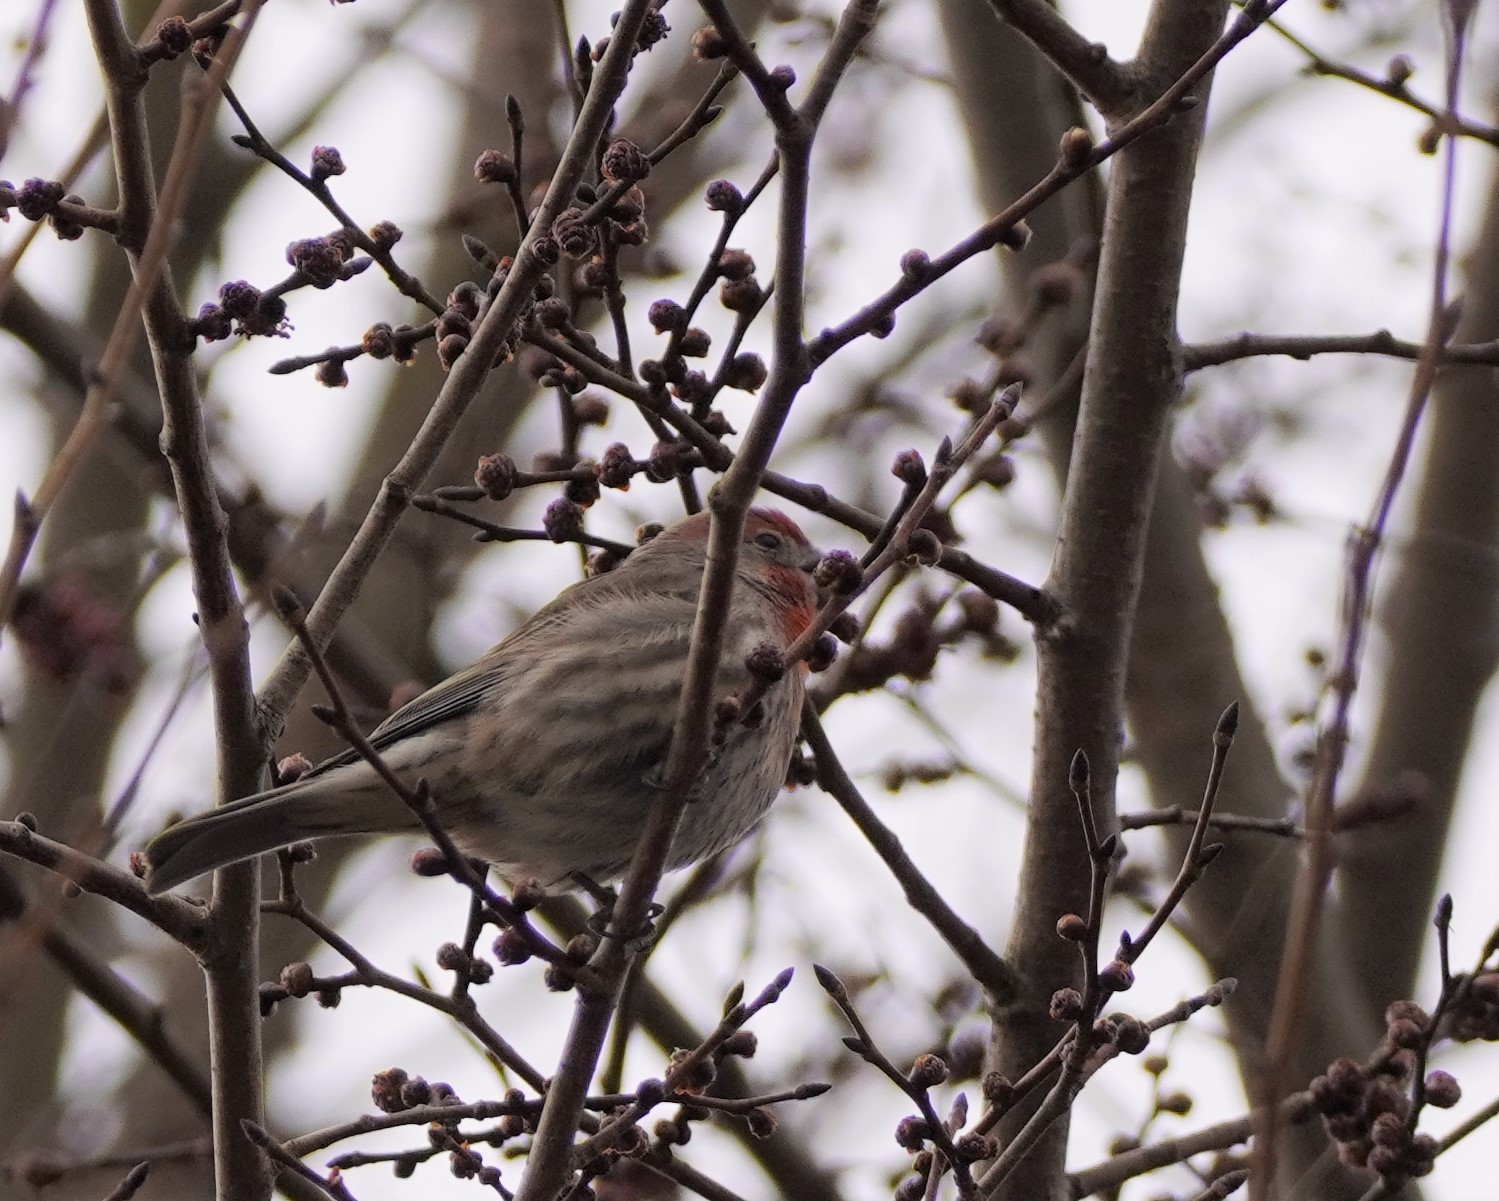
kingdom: Animalia
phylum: Chordata
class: Aves
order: Passeriformes
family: Fringillidae
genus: Haemorhous
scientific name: Haemorhous mexicanus
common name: House finch
